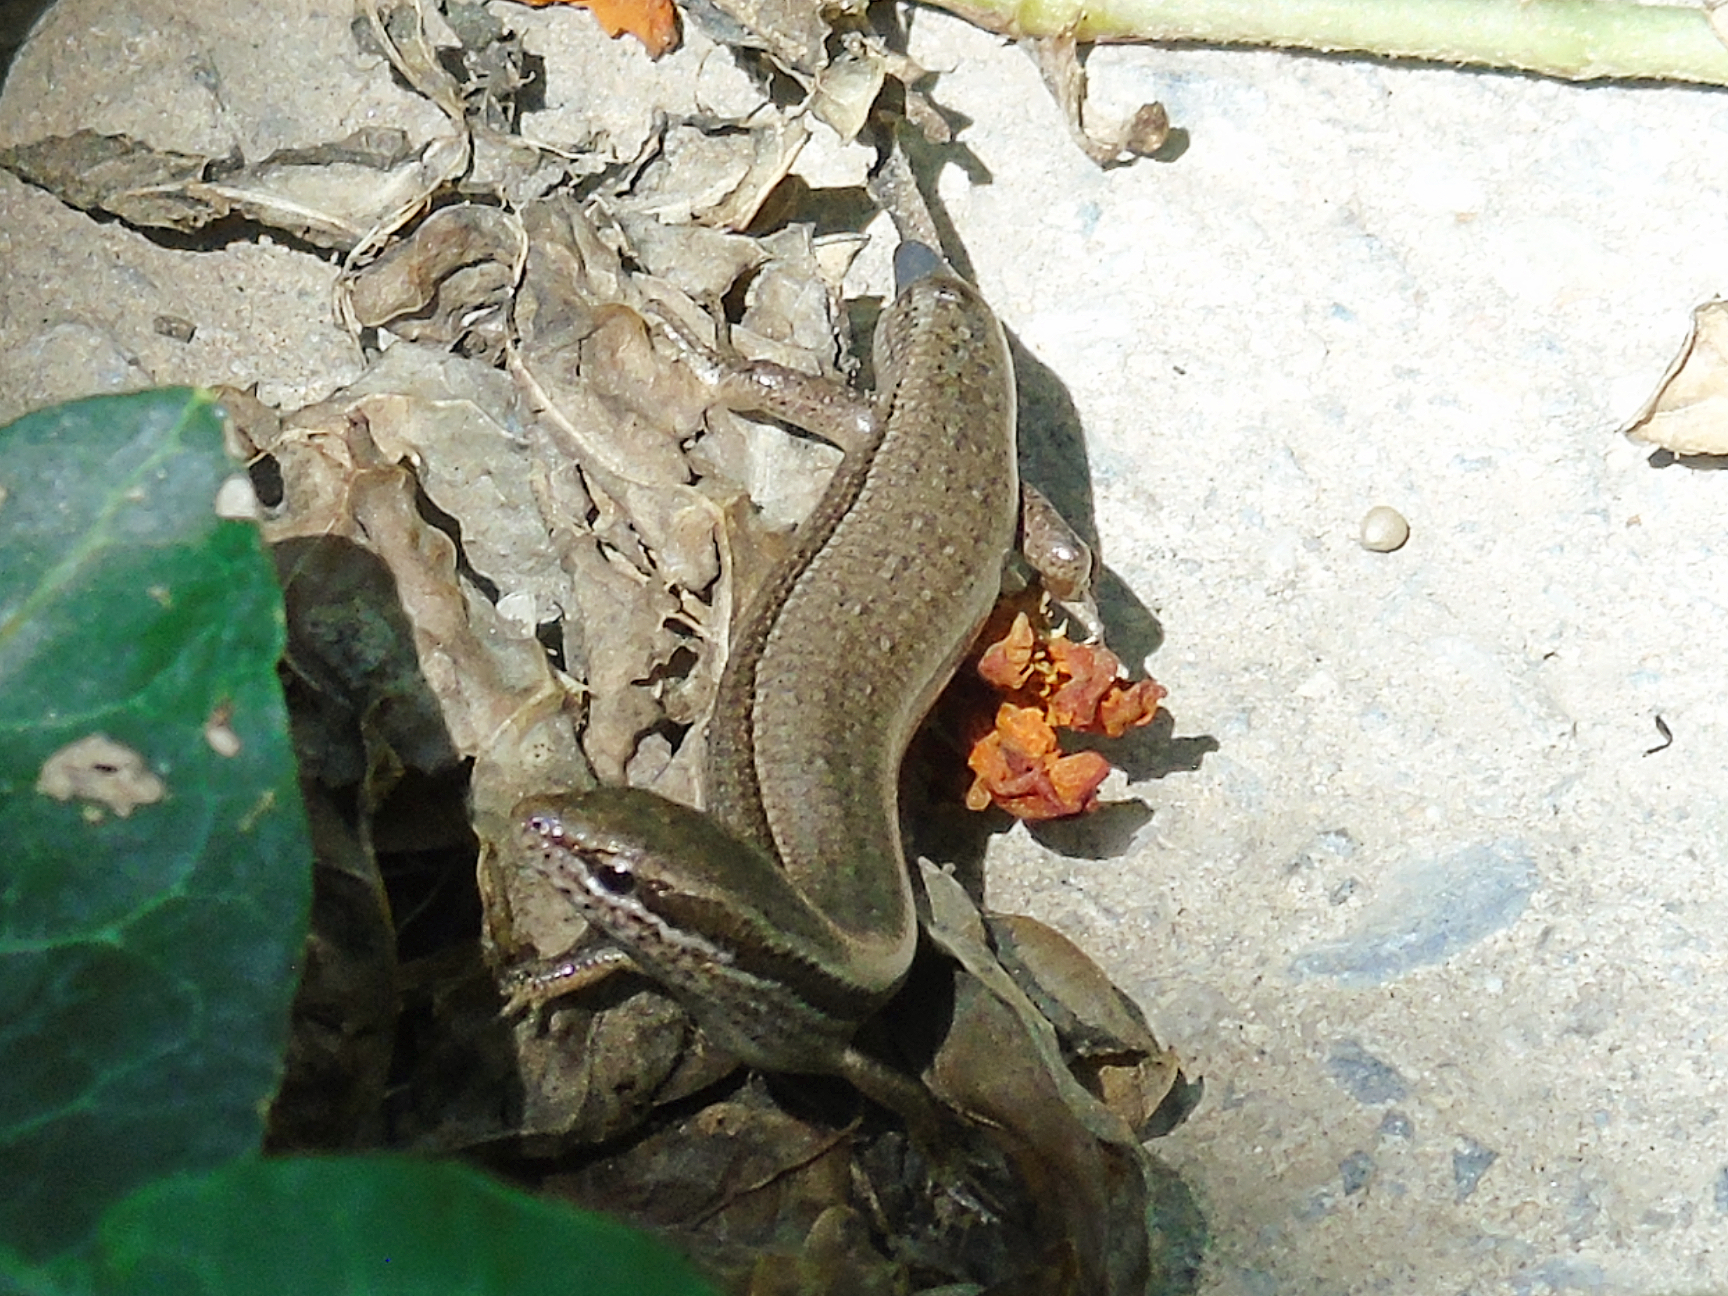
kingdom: Animalia
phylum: Chordata
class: Squamata
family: Scincidae
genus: Ablepharus
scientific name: Ablepharus deserti
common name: Desert lidless skink
